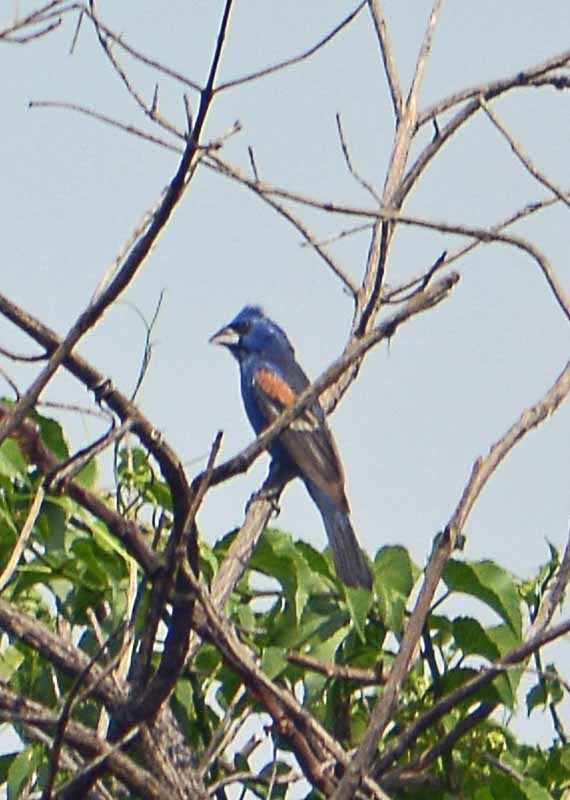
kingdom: Animalia
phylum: Chordata
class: Aves
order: Passeriformes
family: Cardinalidae
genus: Passerina
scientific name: Passerina caerulea
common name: Blue grosbeak
